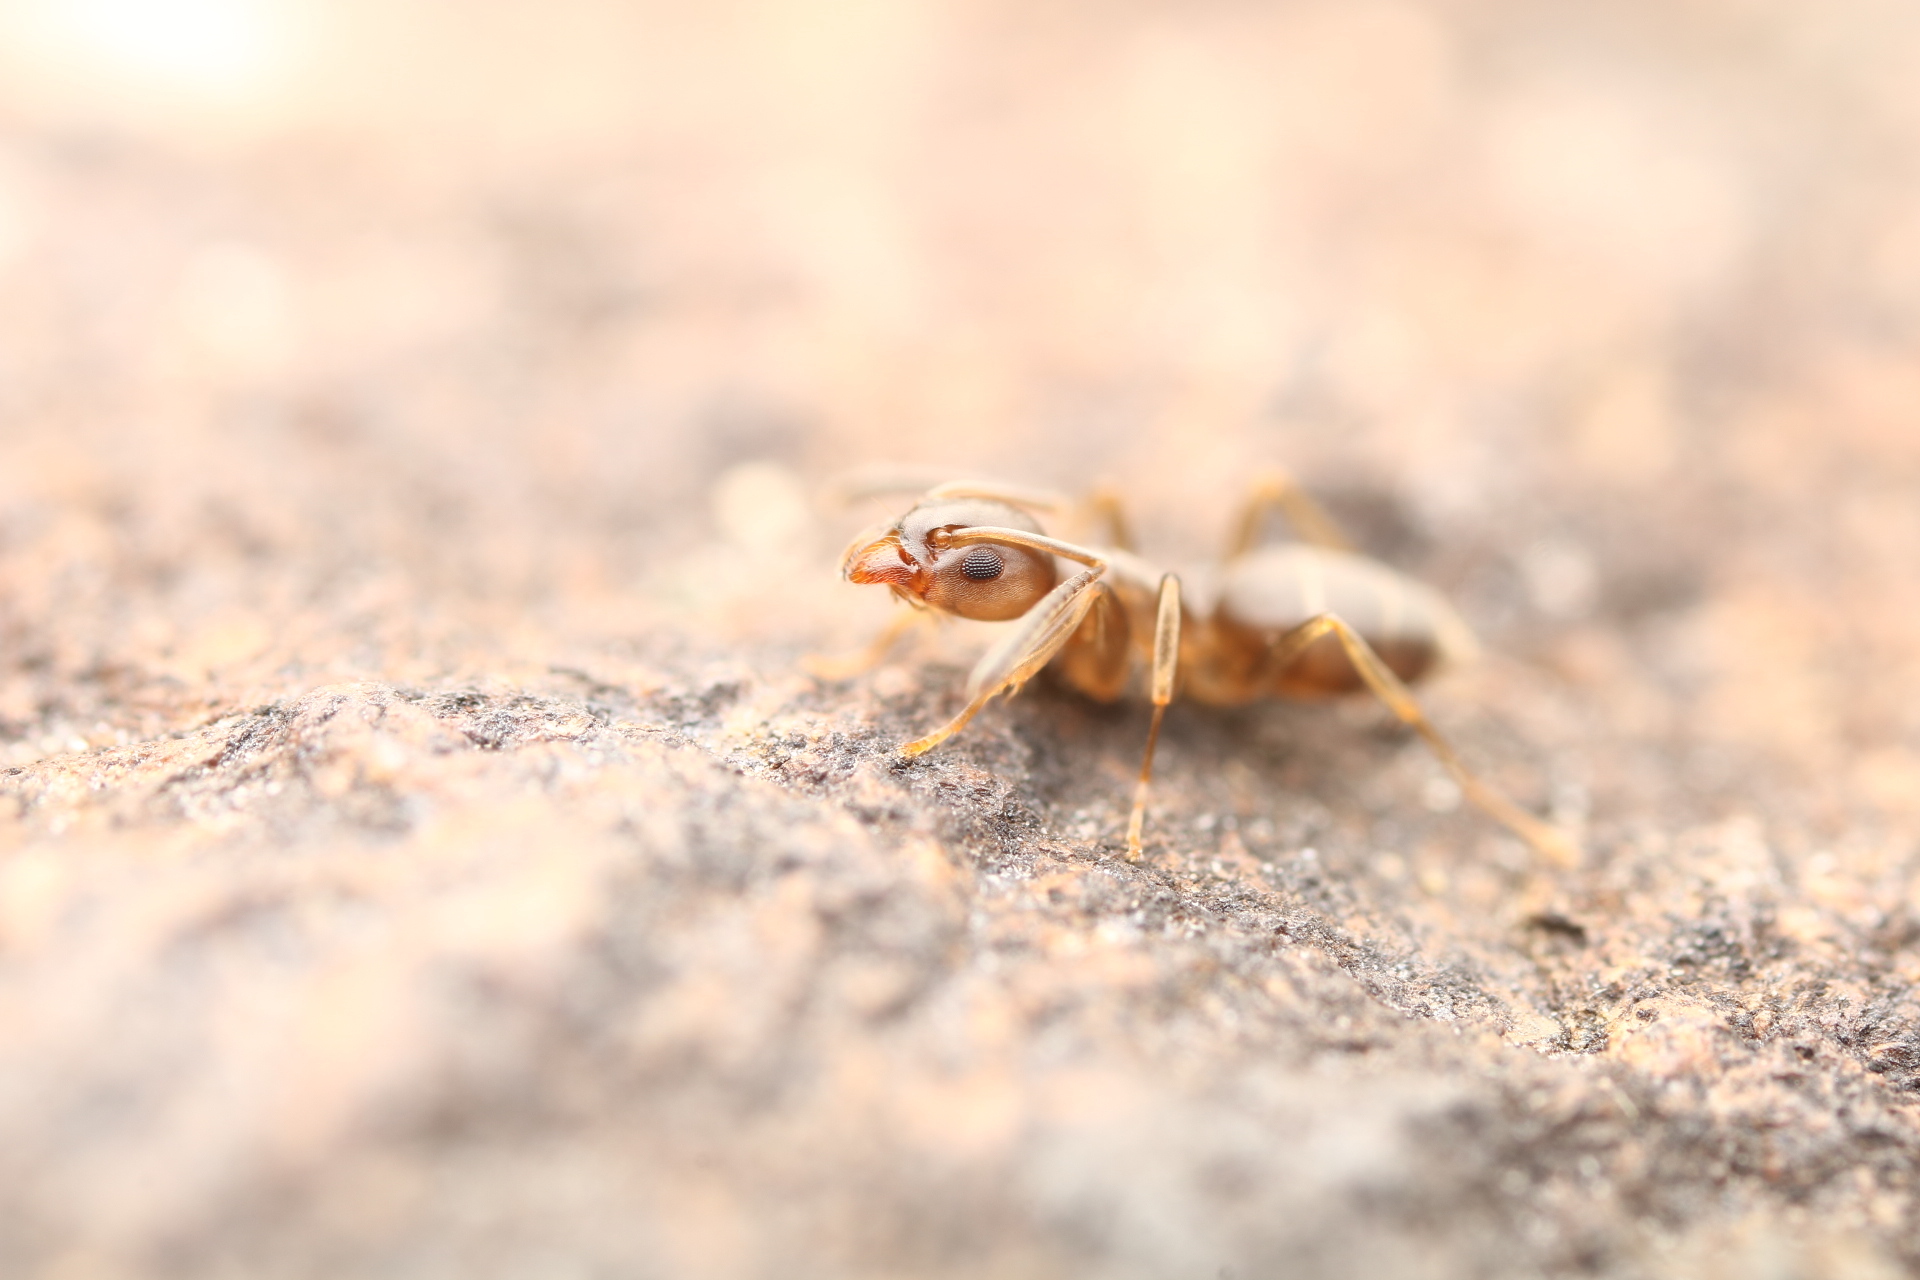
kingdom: Animalia
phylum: Arthropoda
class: Insecta
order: Hymenoptera
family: Formicidae
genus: Tapinoma
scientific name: Tapinoma sessile
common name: Odorous house ant
